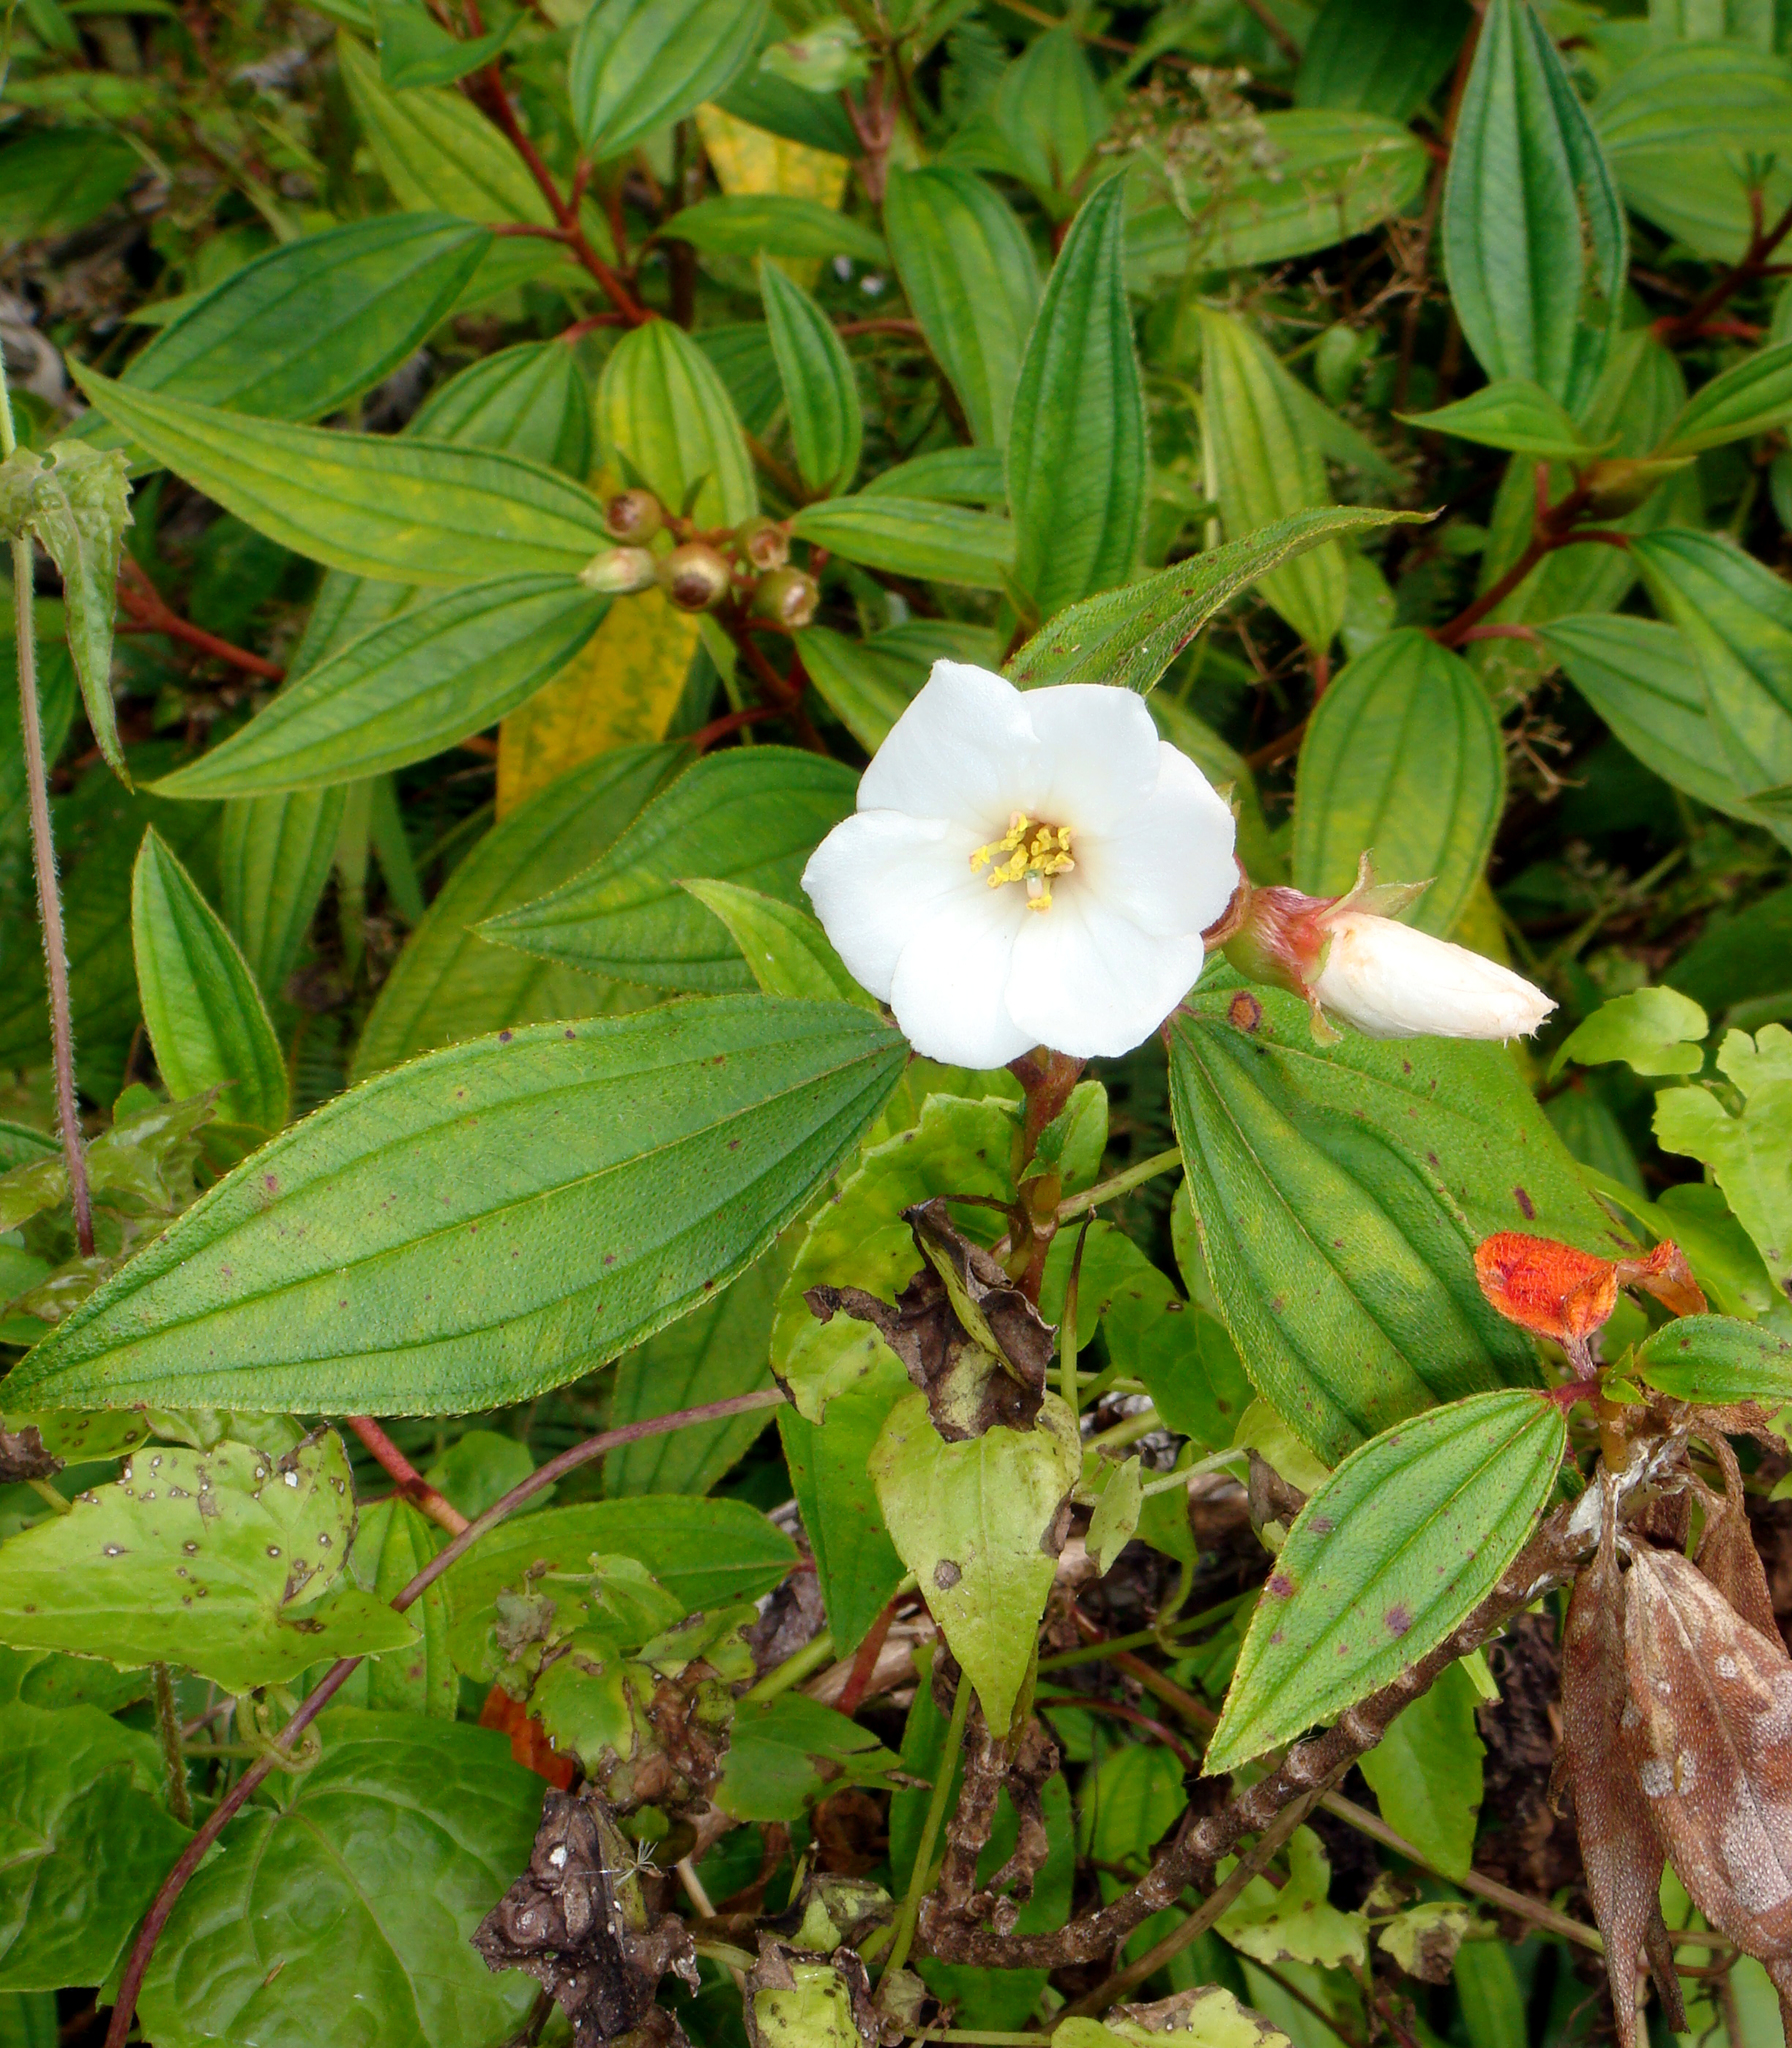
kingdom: Plantae
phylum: Tracheophyta
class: Magnoliopsida
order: Myrtales
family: Melastomataceae
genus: Melastoma
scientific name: Melastoma denticulatum
